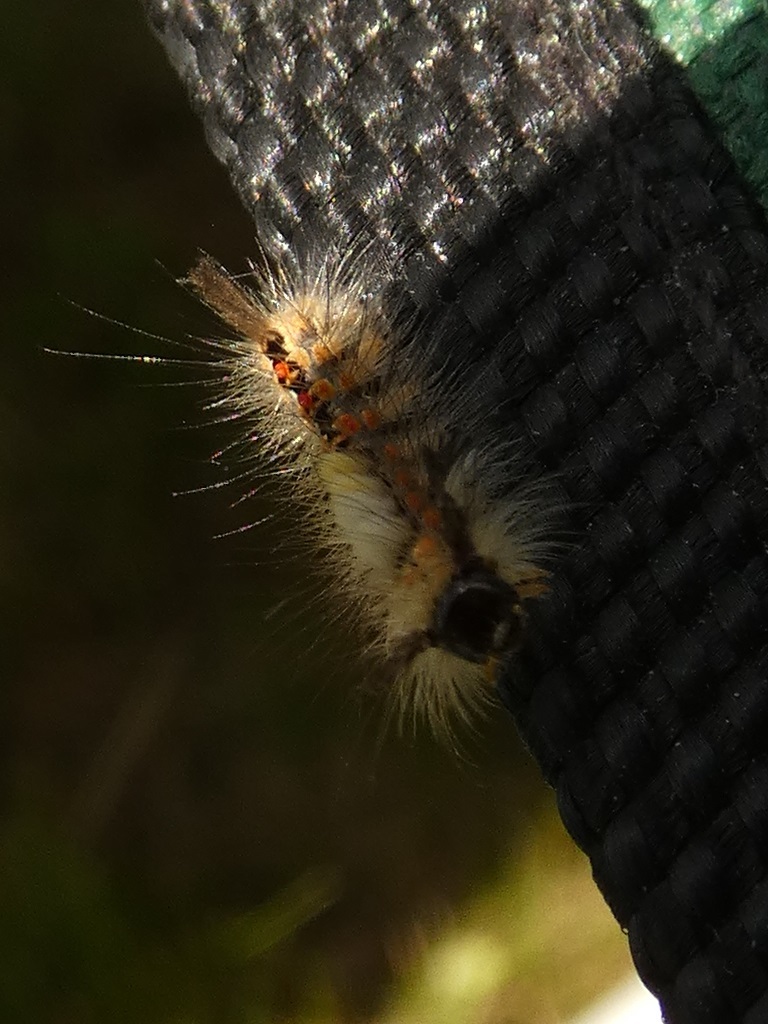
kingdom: Animalia
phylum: Arthropoda
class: Insecta
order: Lepidoptera
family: Erebidae
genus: Orgyia
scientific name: Orgyia antiqua
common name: Vapourer
